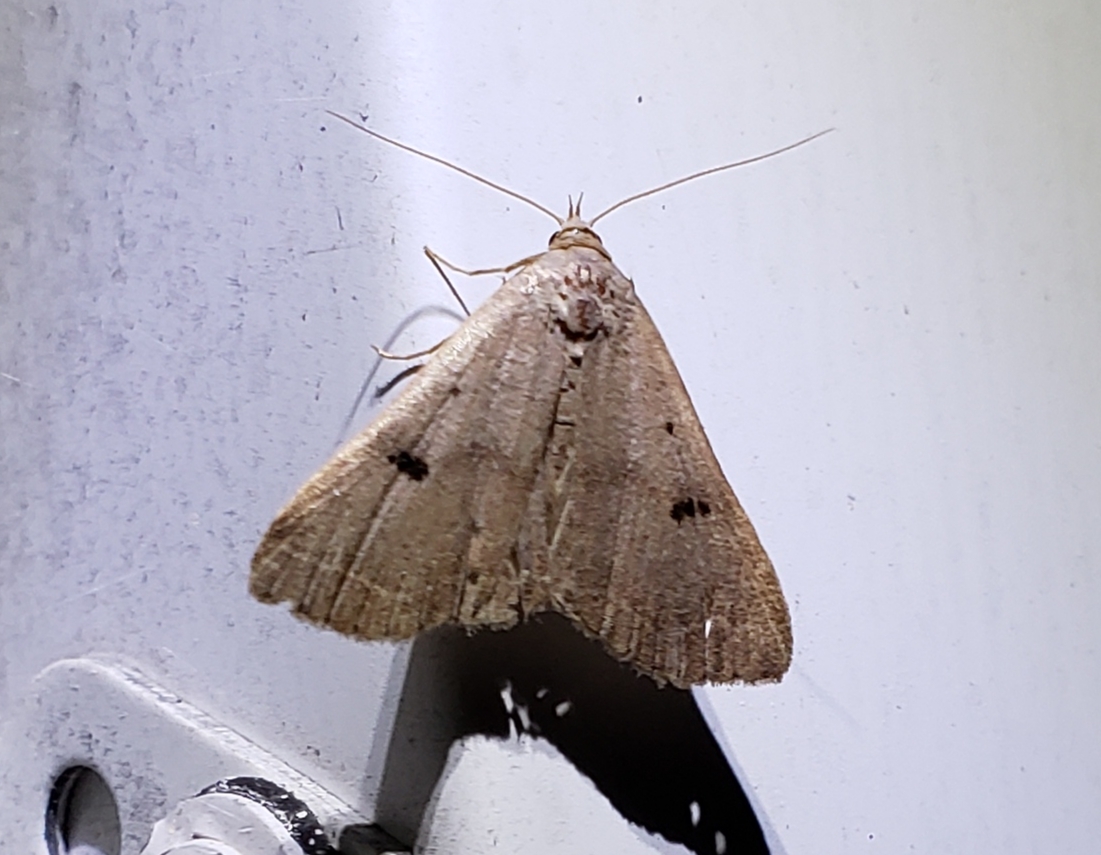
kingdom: Animalia
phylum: Arthropoda
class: Insecta
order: Lepidoptera
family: Erebidae
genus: Bleptina
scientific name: Bleptina caradrinalis
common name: Bent-winged owlet
